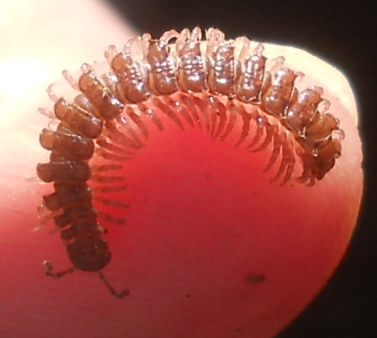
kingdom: Animalia
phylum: Arthropoda
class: Diplopoda
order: Polydesmida
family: Polydesmidae
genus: Polydesmus
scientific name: Polydesmus inconstans
